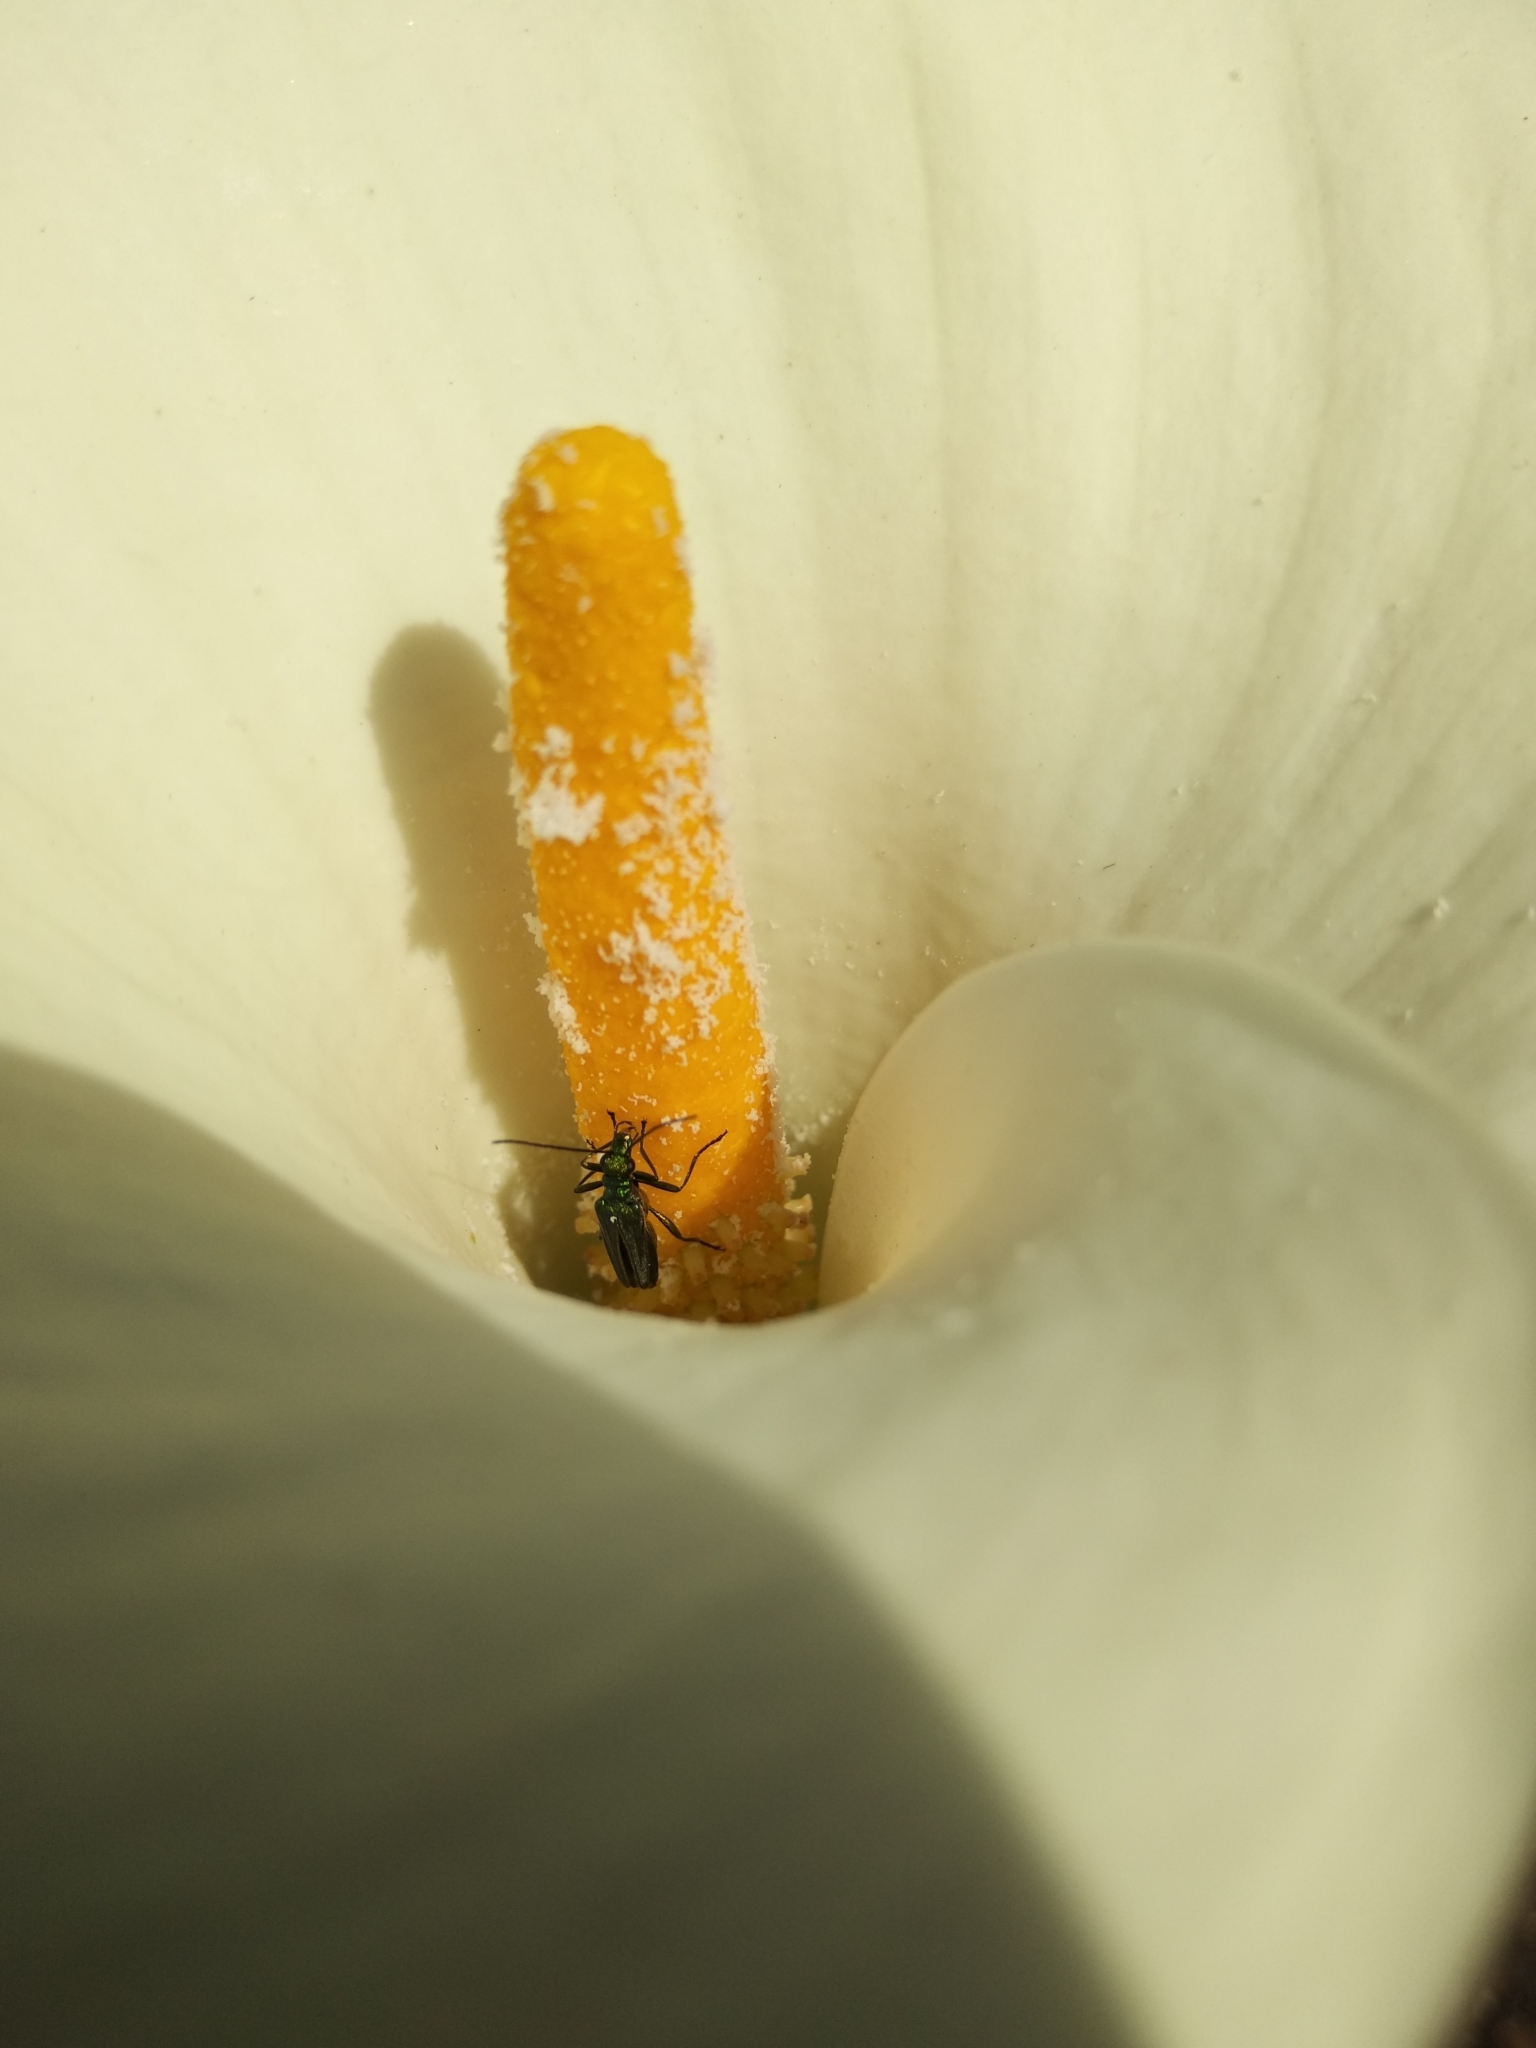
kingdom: Animalia
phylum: Arthropoda
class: Insecta
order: Coleoptera
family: Oedemeridae
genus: Oedemera
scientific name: Oedemera nobilis
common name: Swollen-thighed beetle
